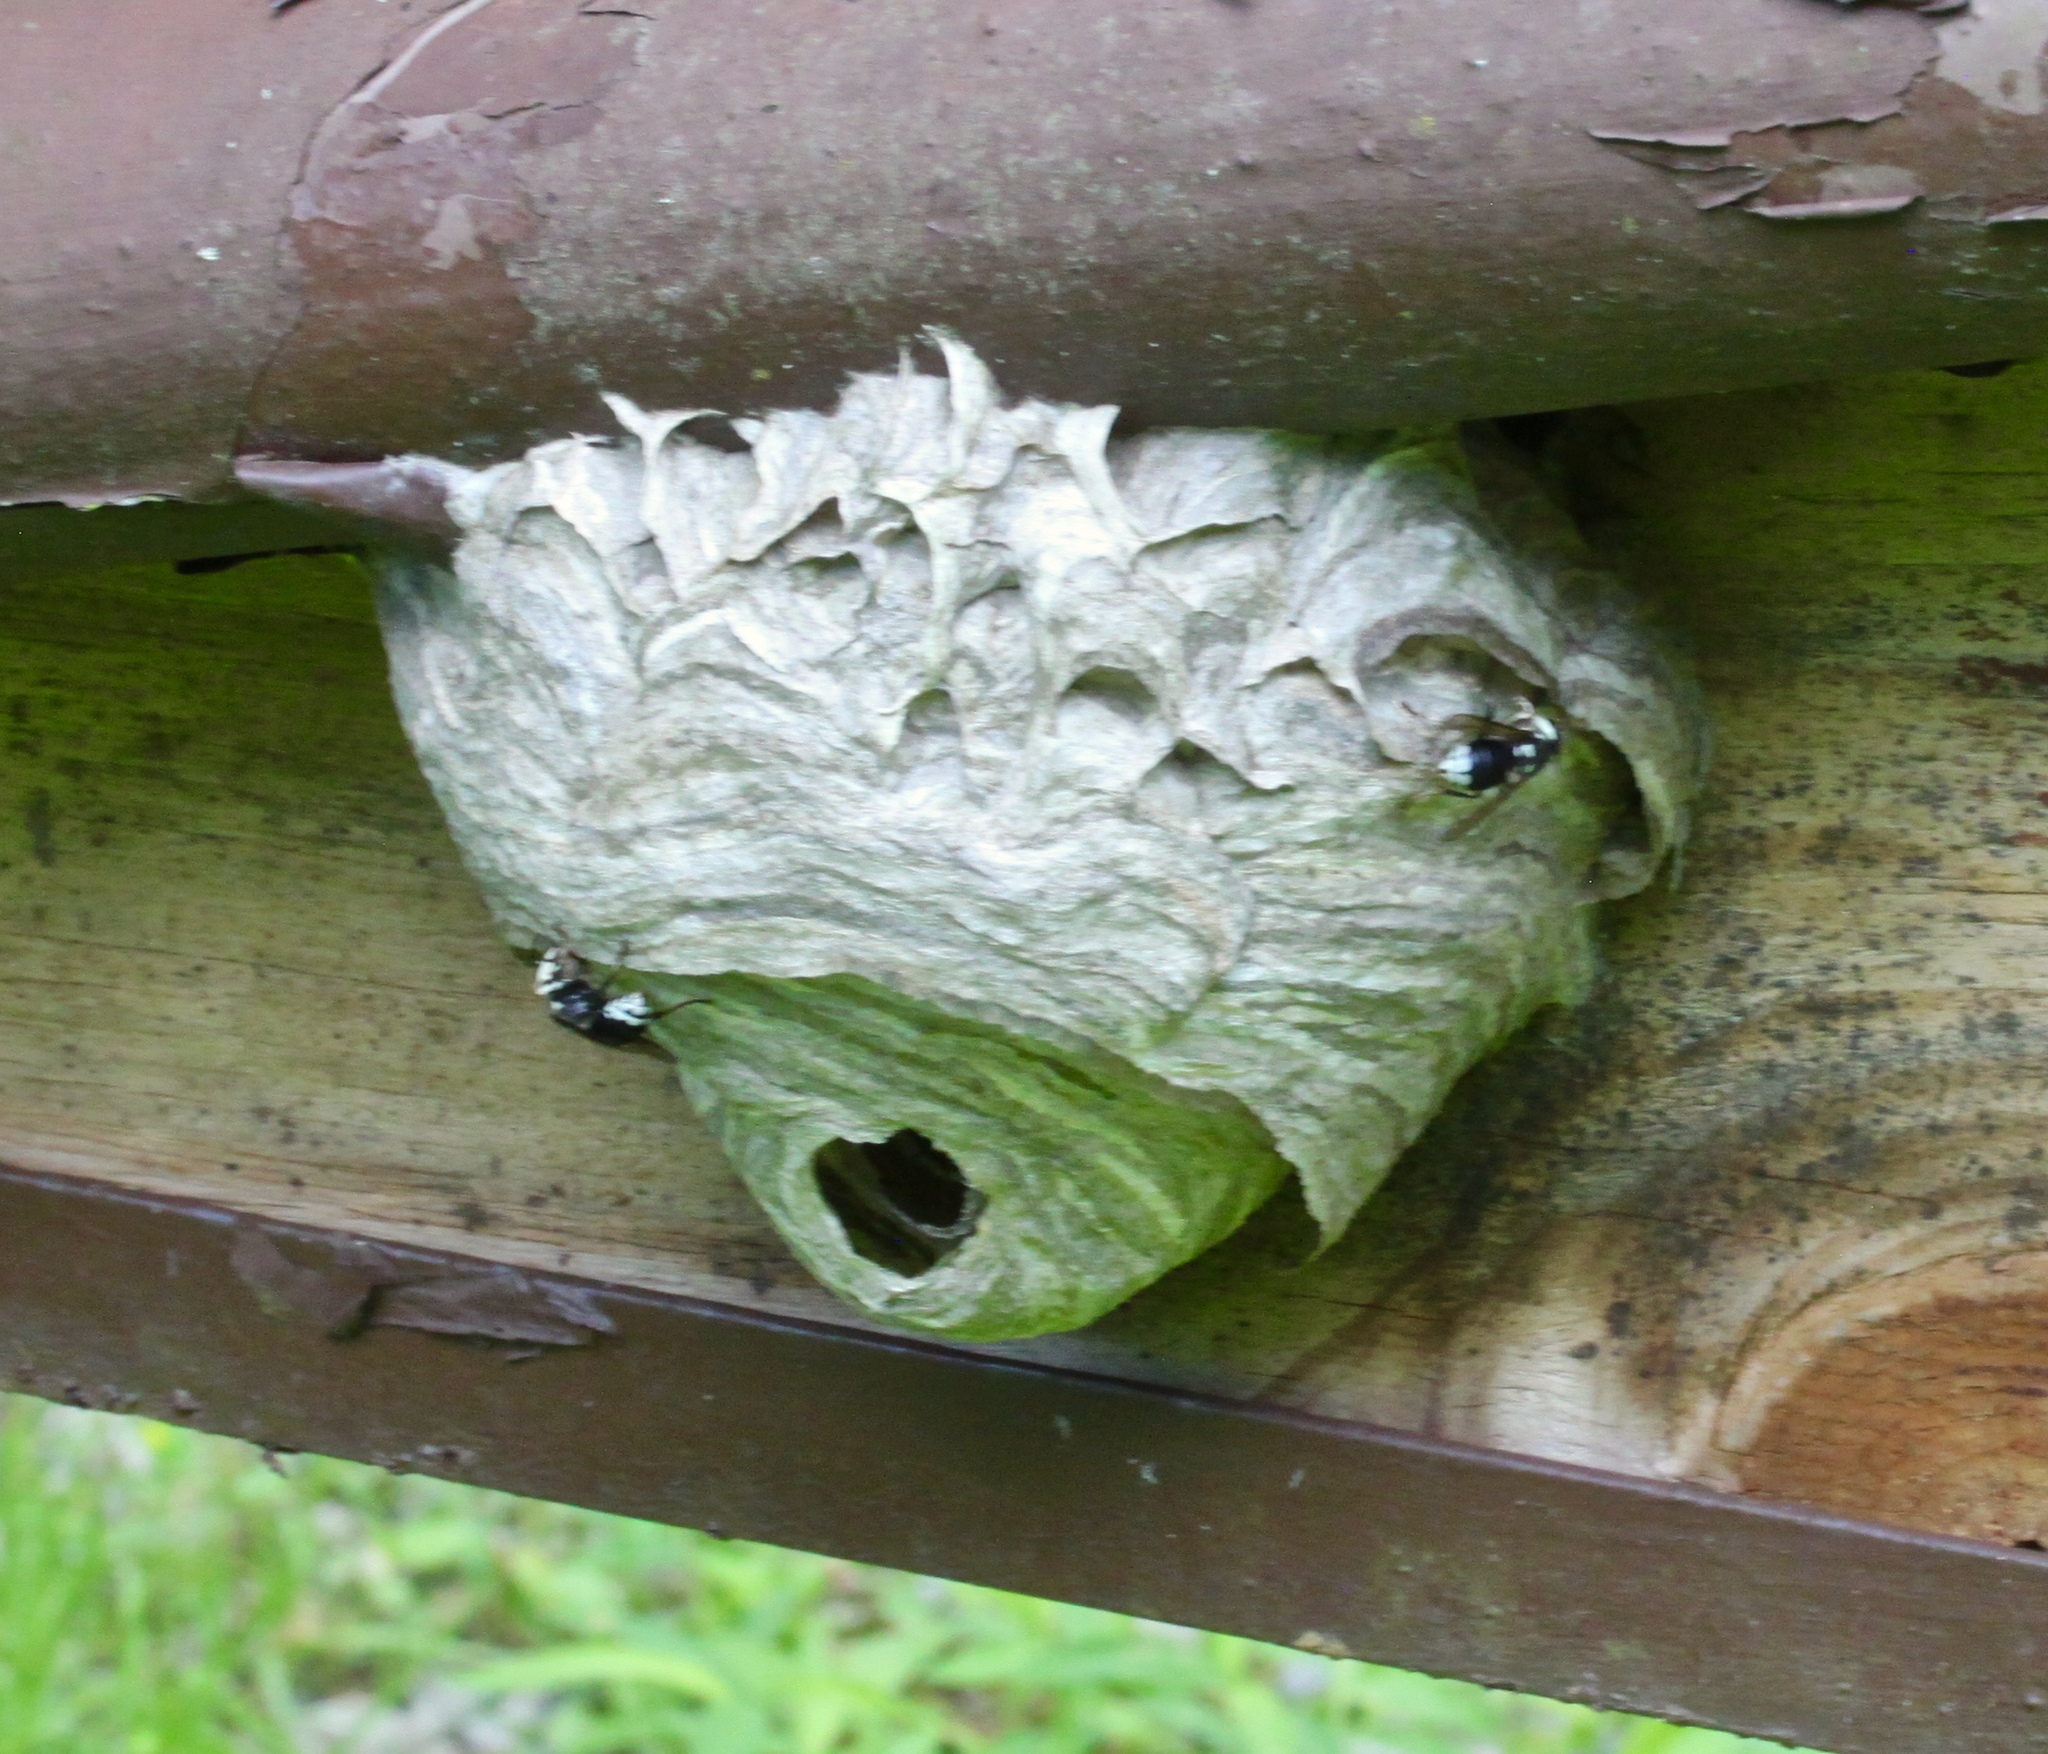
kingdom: Animalia
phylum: Arthropoda
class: Insecta
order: Hymenoptera
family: Vespidae
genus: Dolichovespula
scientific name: Dolichovespula maculata
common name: Bald-faced hornet
